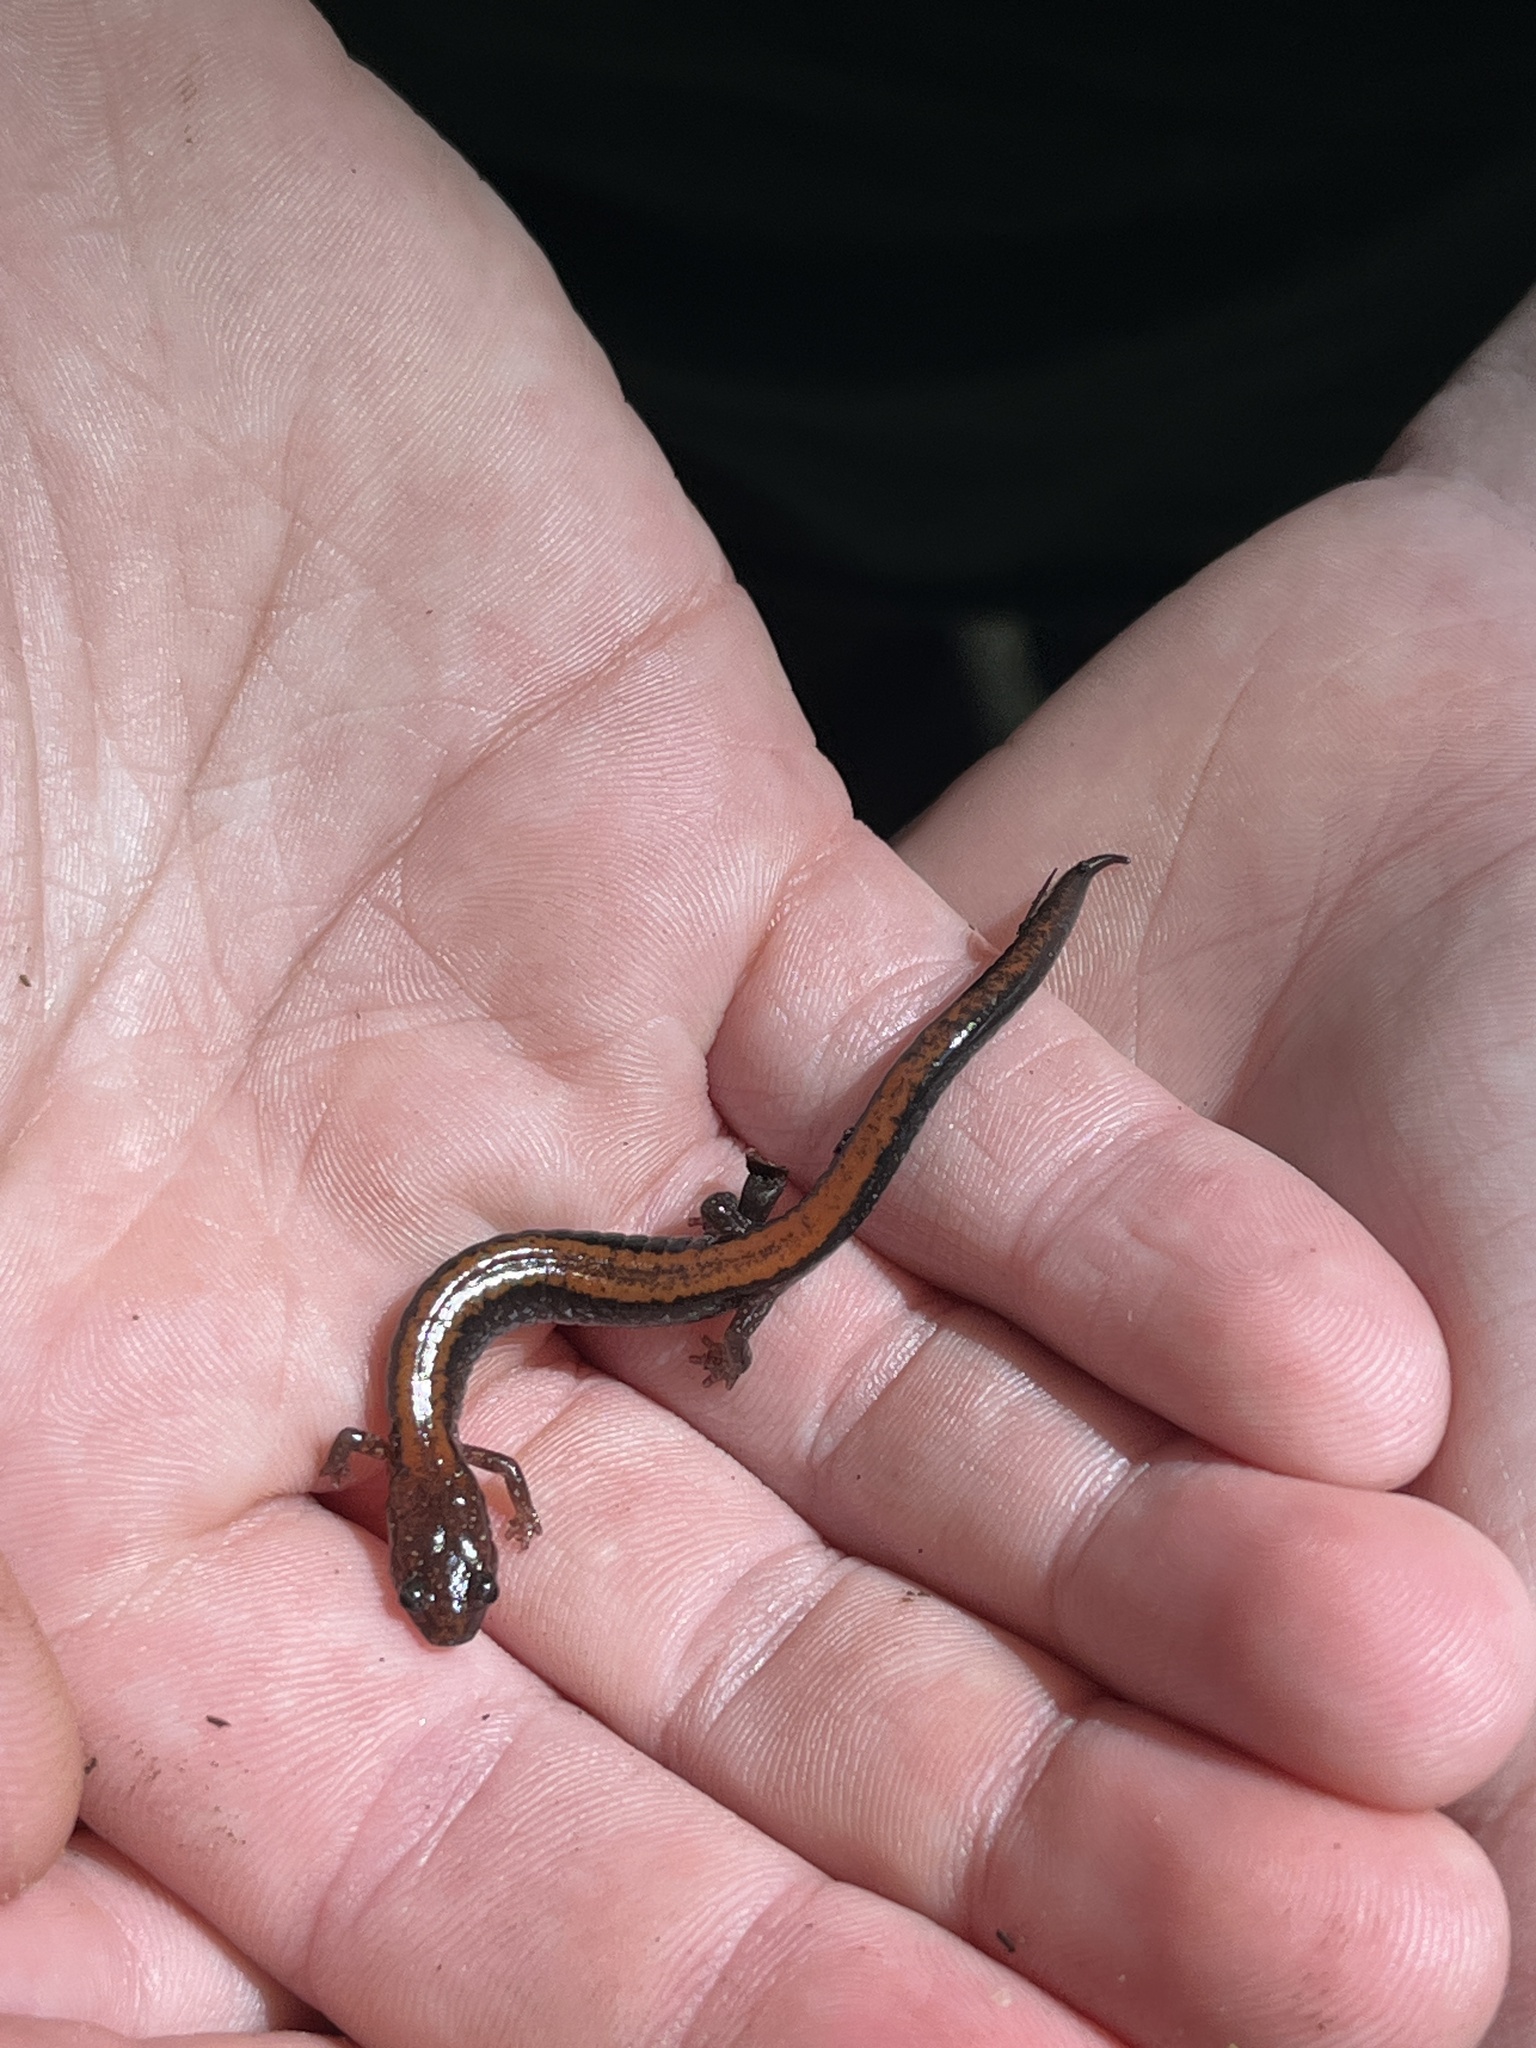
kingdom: Animalia
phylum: Chordata
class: Amphibia
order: Caudata
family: Plethodontidae
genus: Plethodon
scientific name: Plethodon cinereus
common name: Redback salamander
